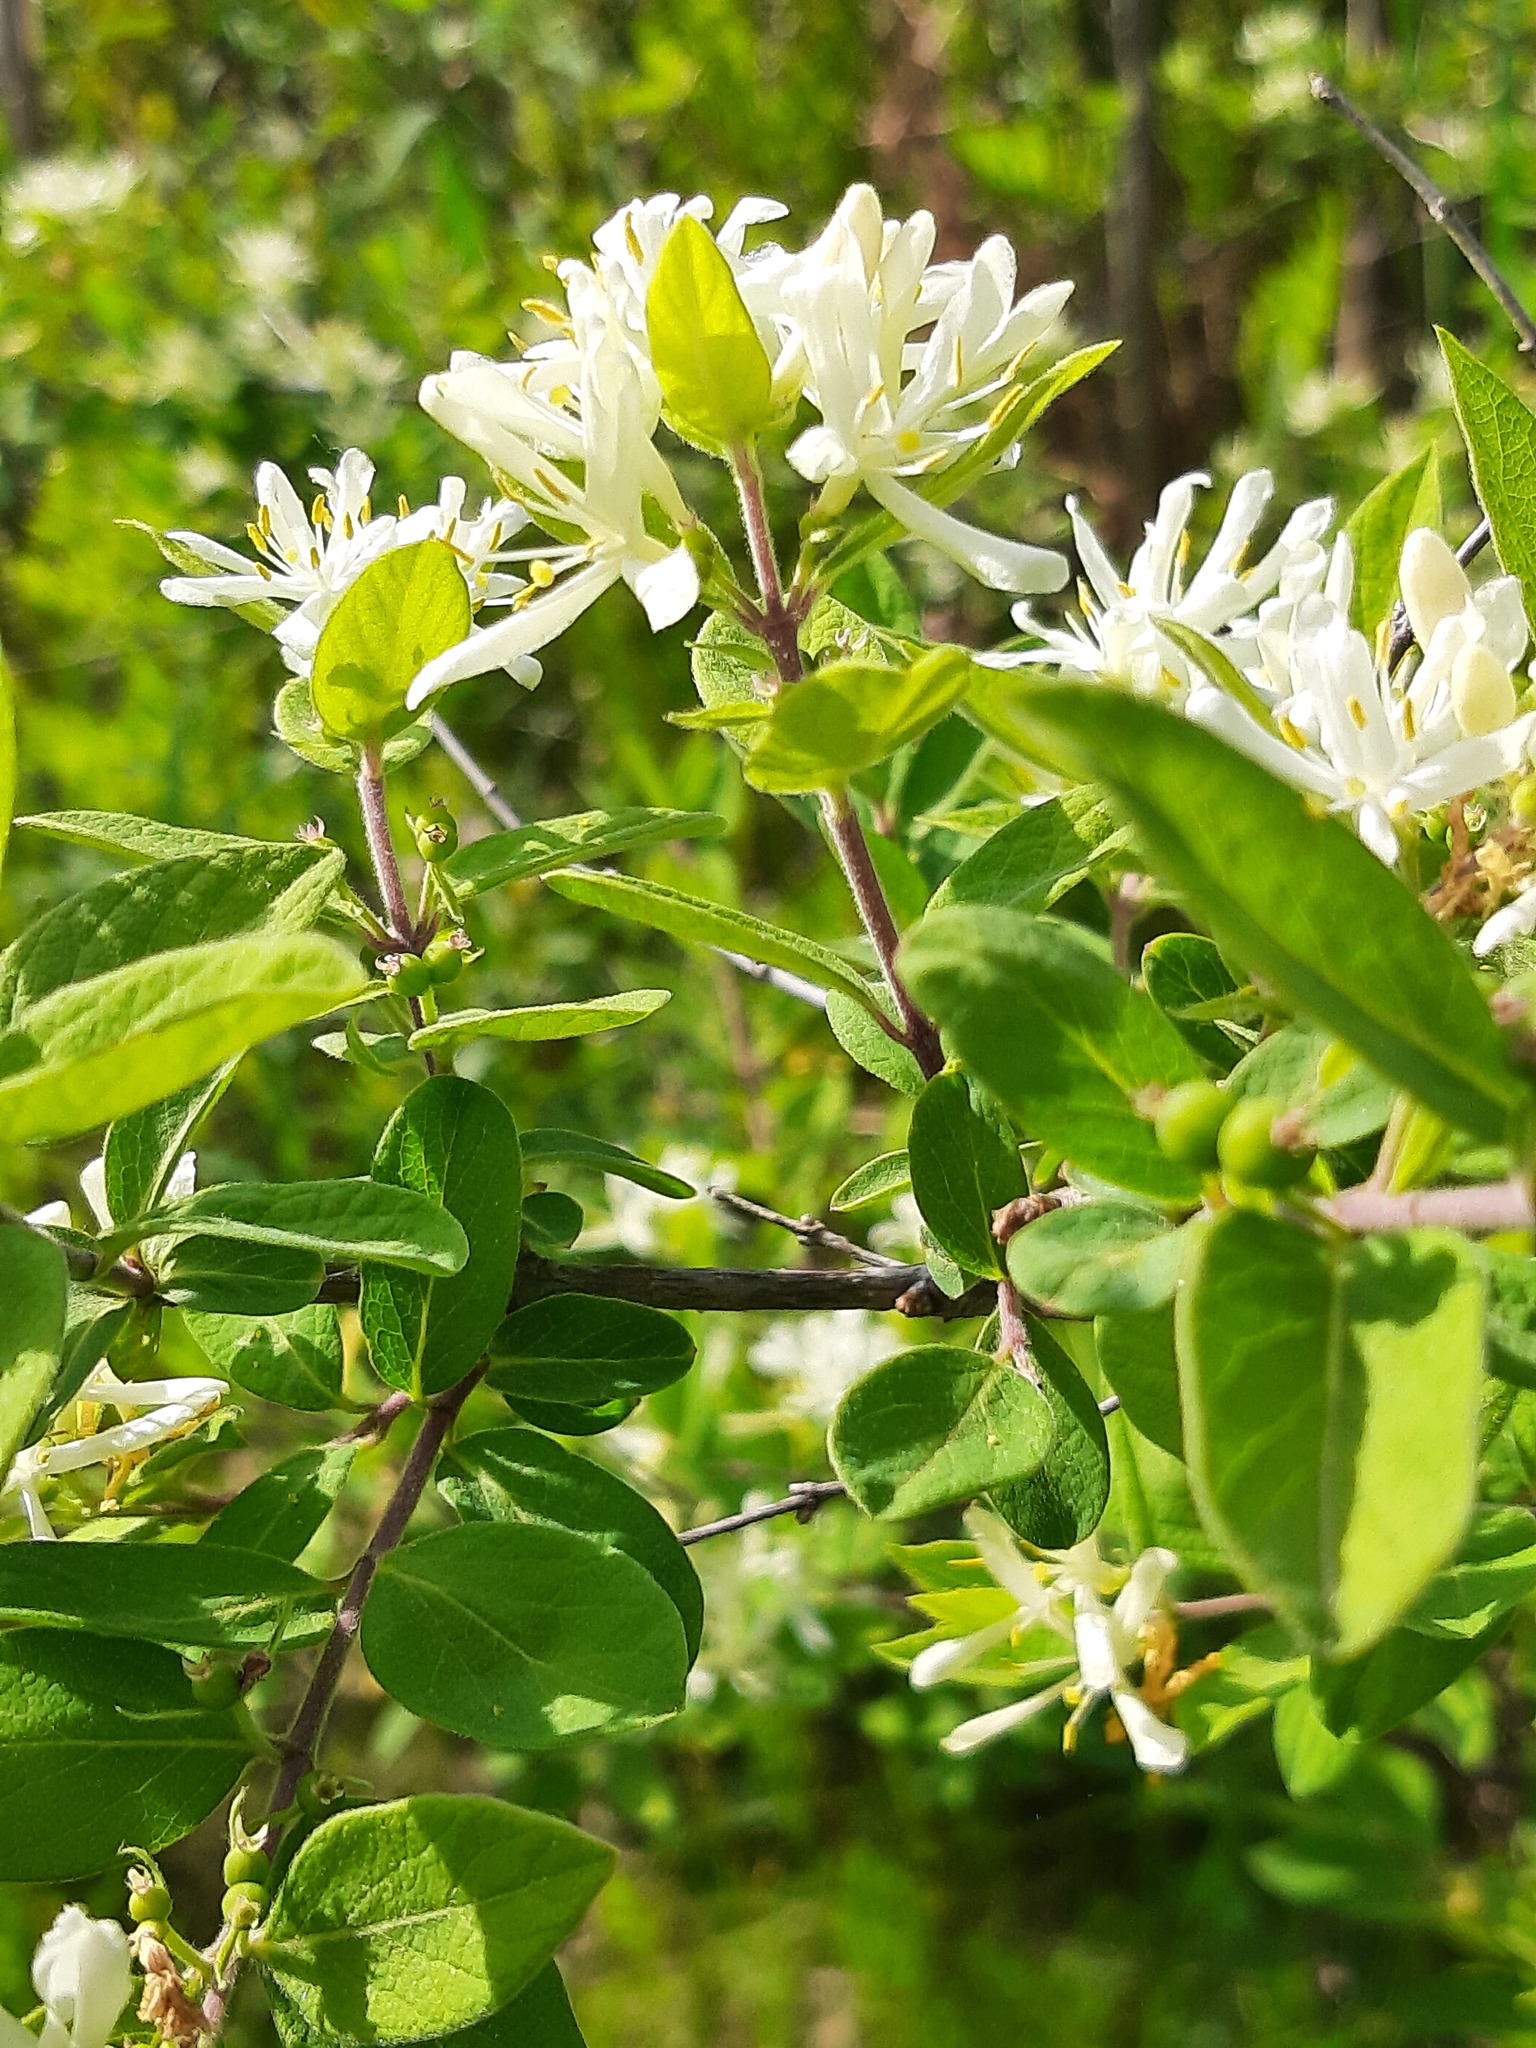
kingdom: Plantae
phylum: Tracheophyta
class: Magnoliopsida
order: Dipsacales
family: Caprifoliaceae
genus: Lonicera
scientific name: Lonicera morrowii
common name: Morrow's honeysuckle
